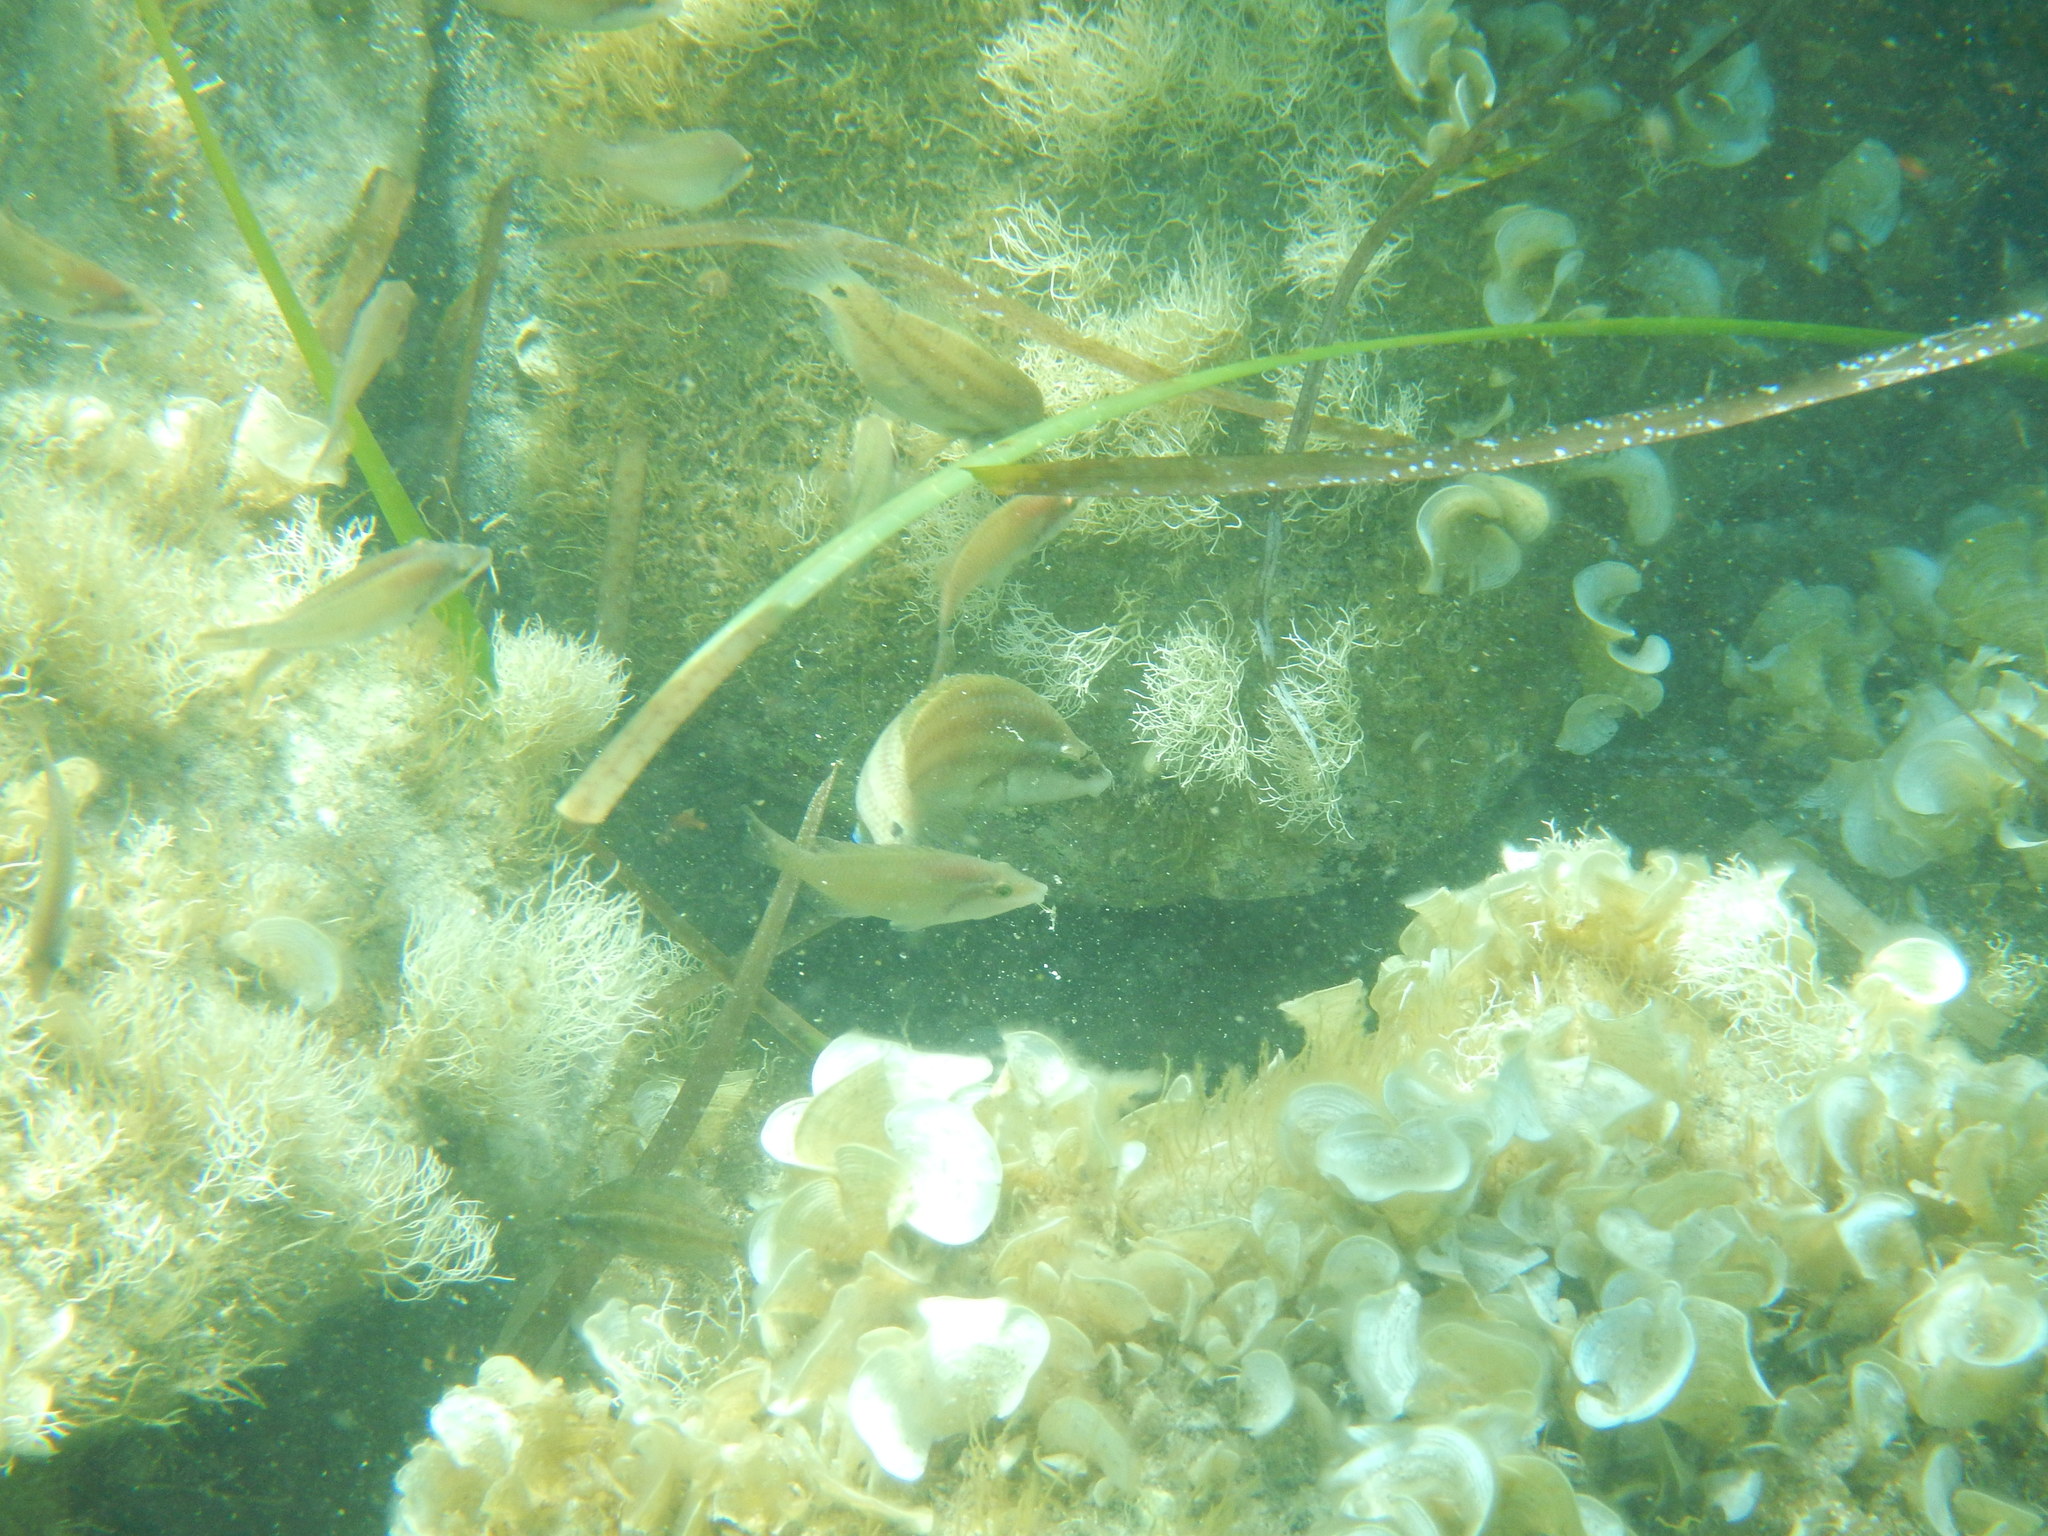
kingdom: Animalia
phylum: Chordata
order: Perciformes
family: Labridae
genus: Symphodus
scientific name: Symphodus tinca
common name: Peacock wrasse
